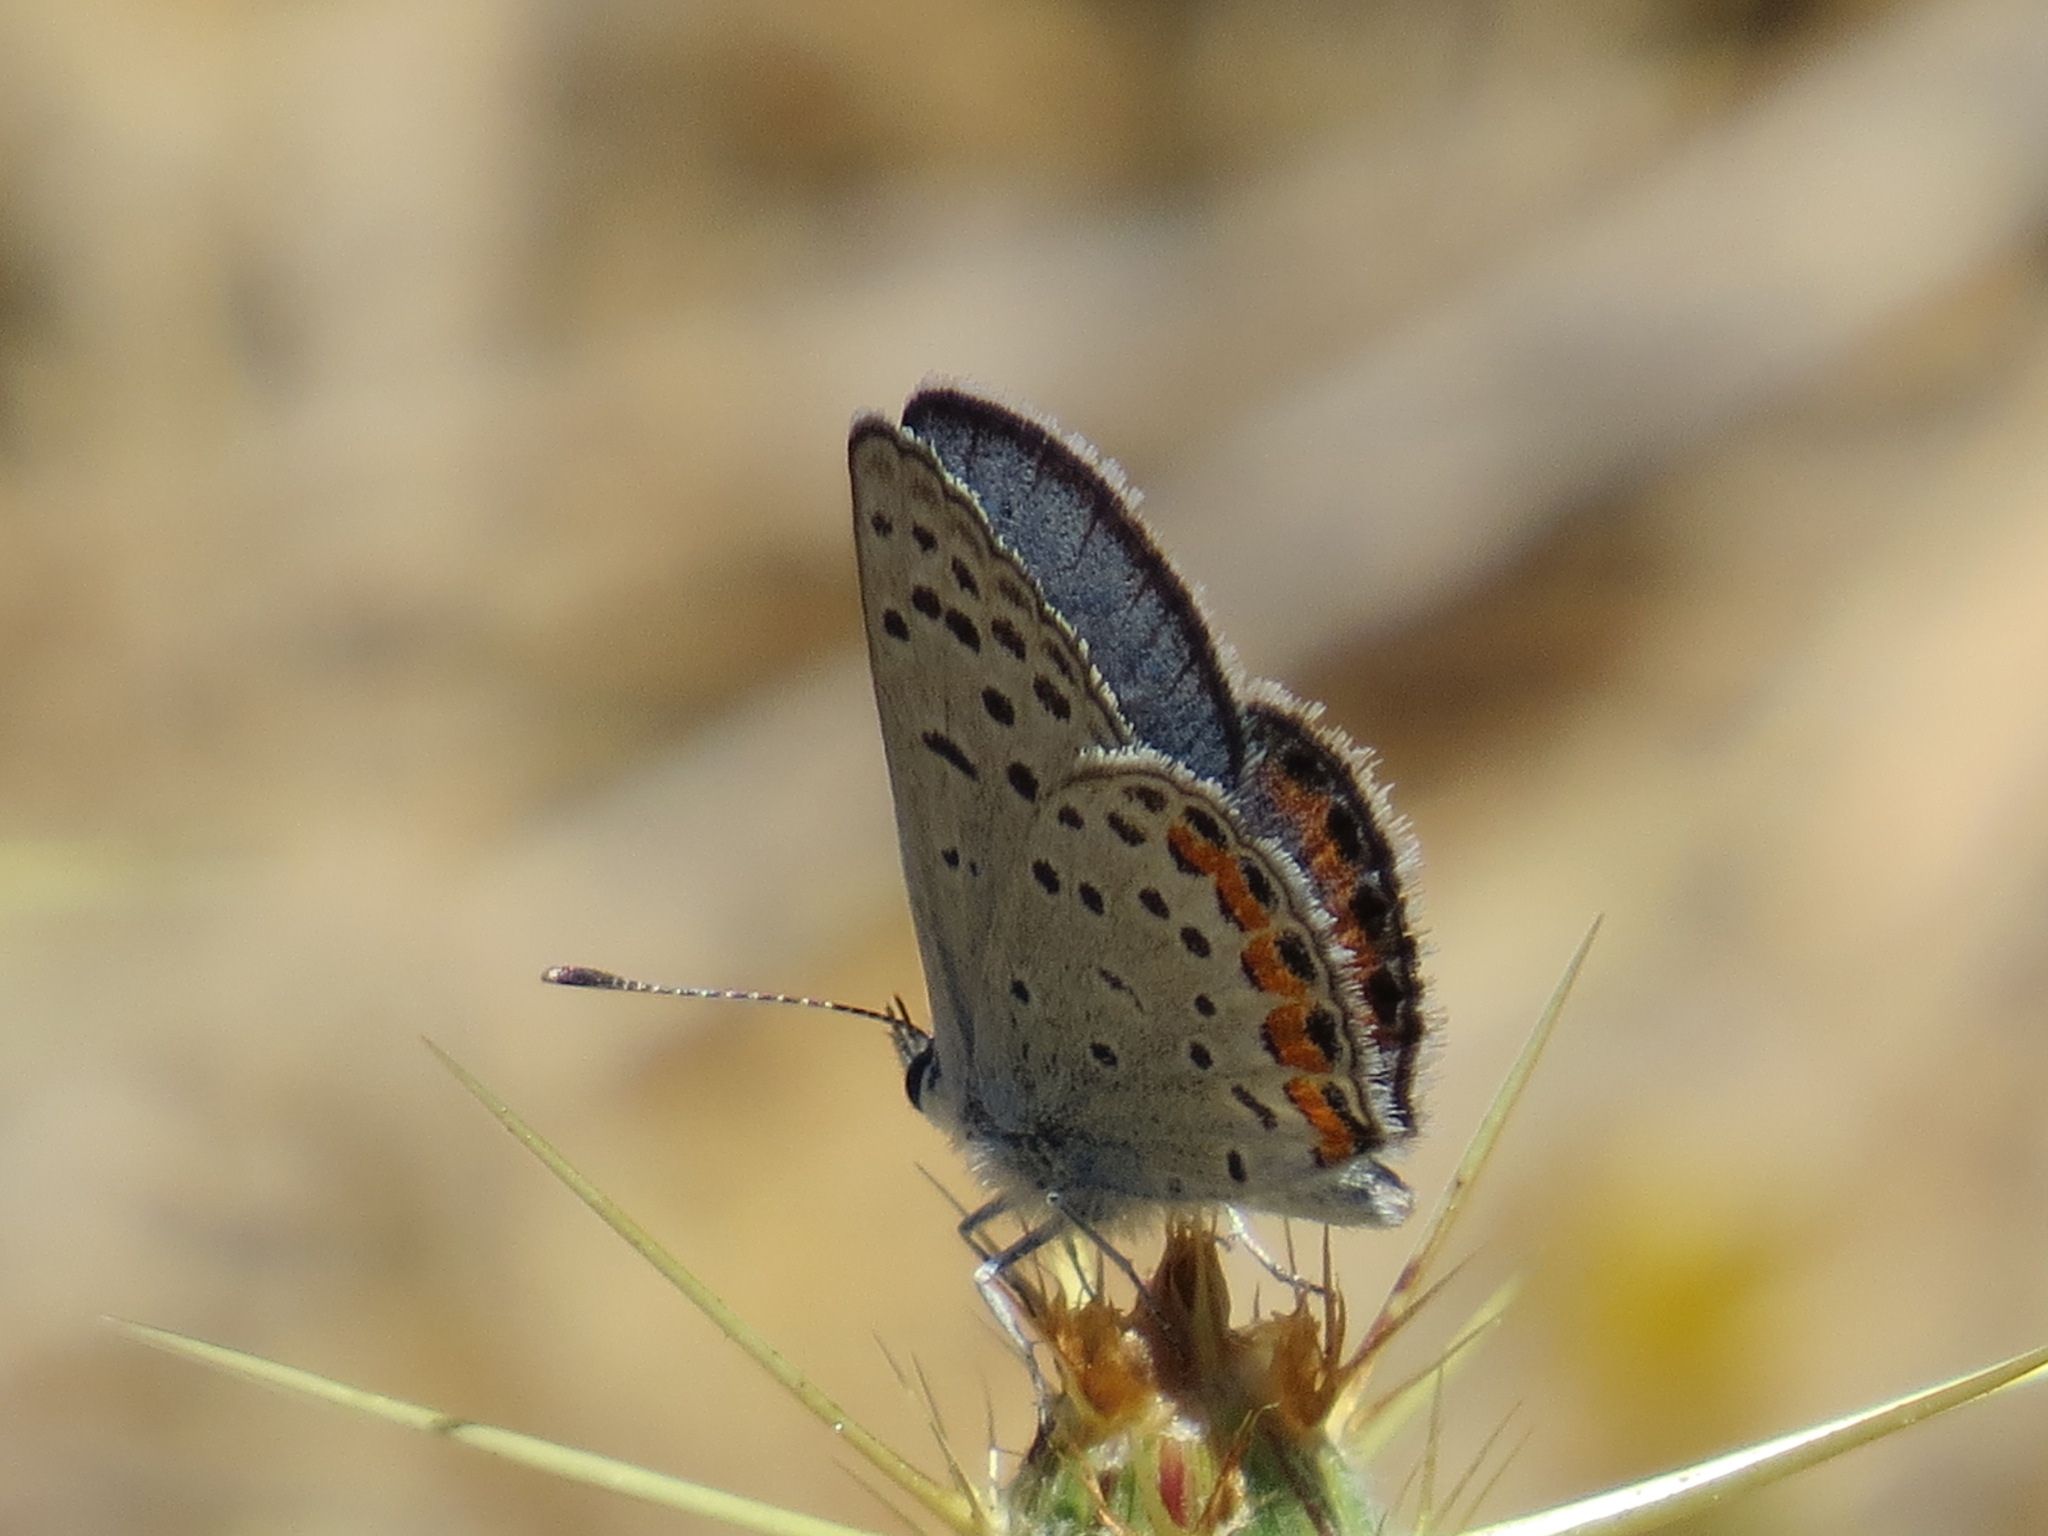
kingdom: Animalia
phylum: Arthropoda
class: Insecta
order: Lepidoptera
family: Lycaenidae
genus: Icaricia
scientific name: Icaricia acmon
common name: Acmon blue
